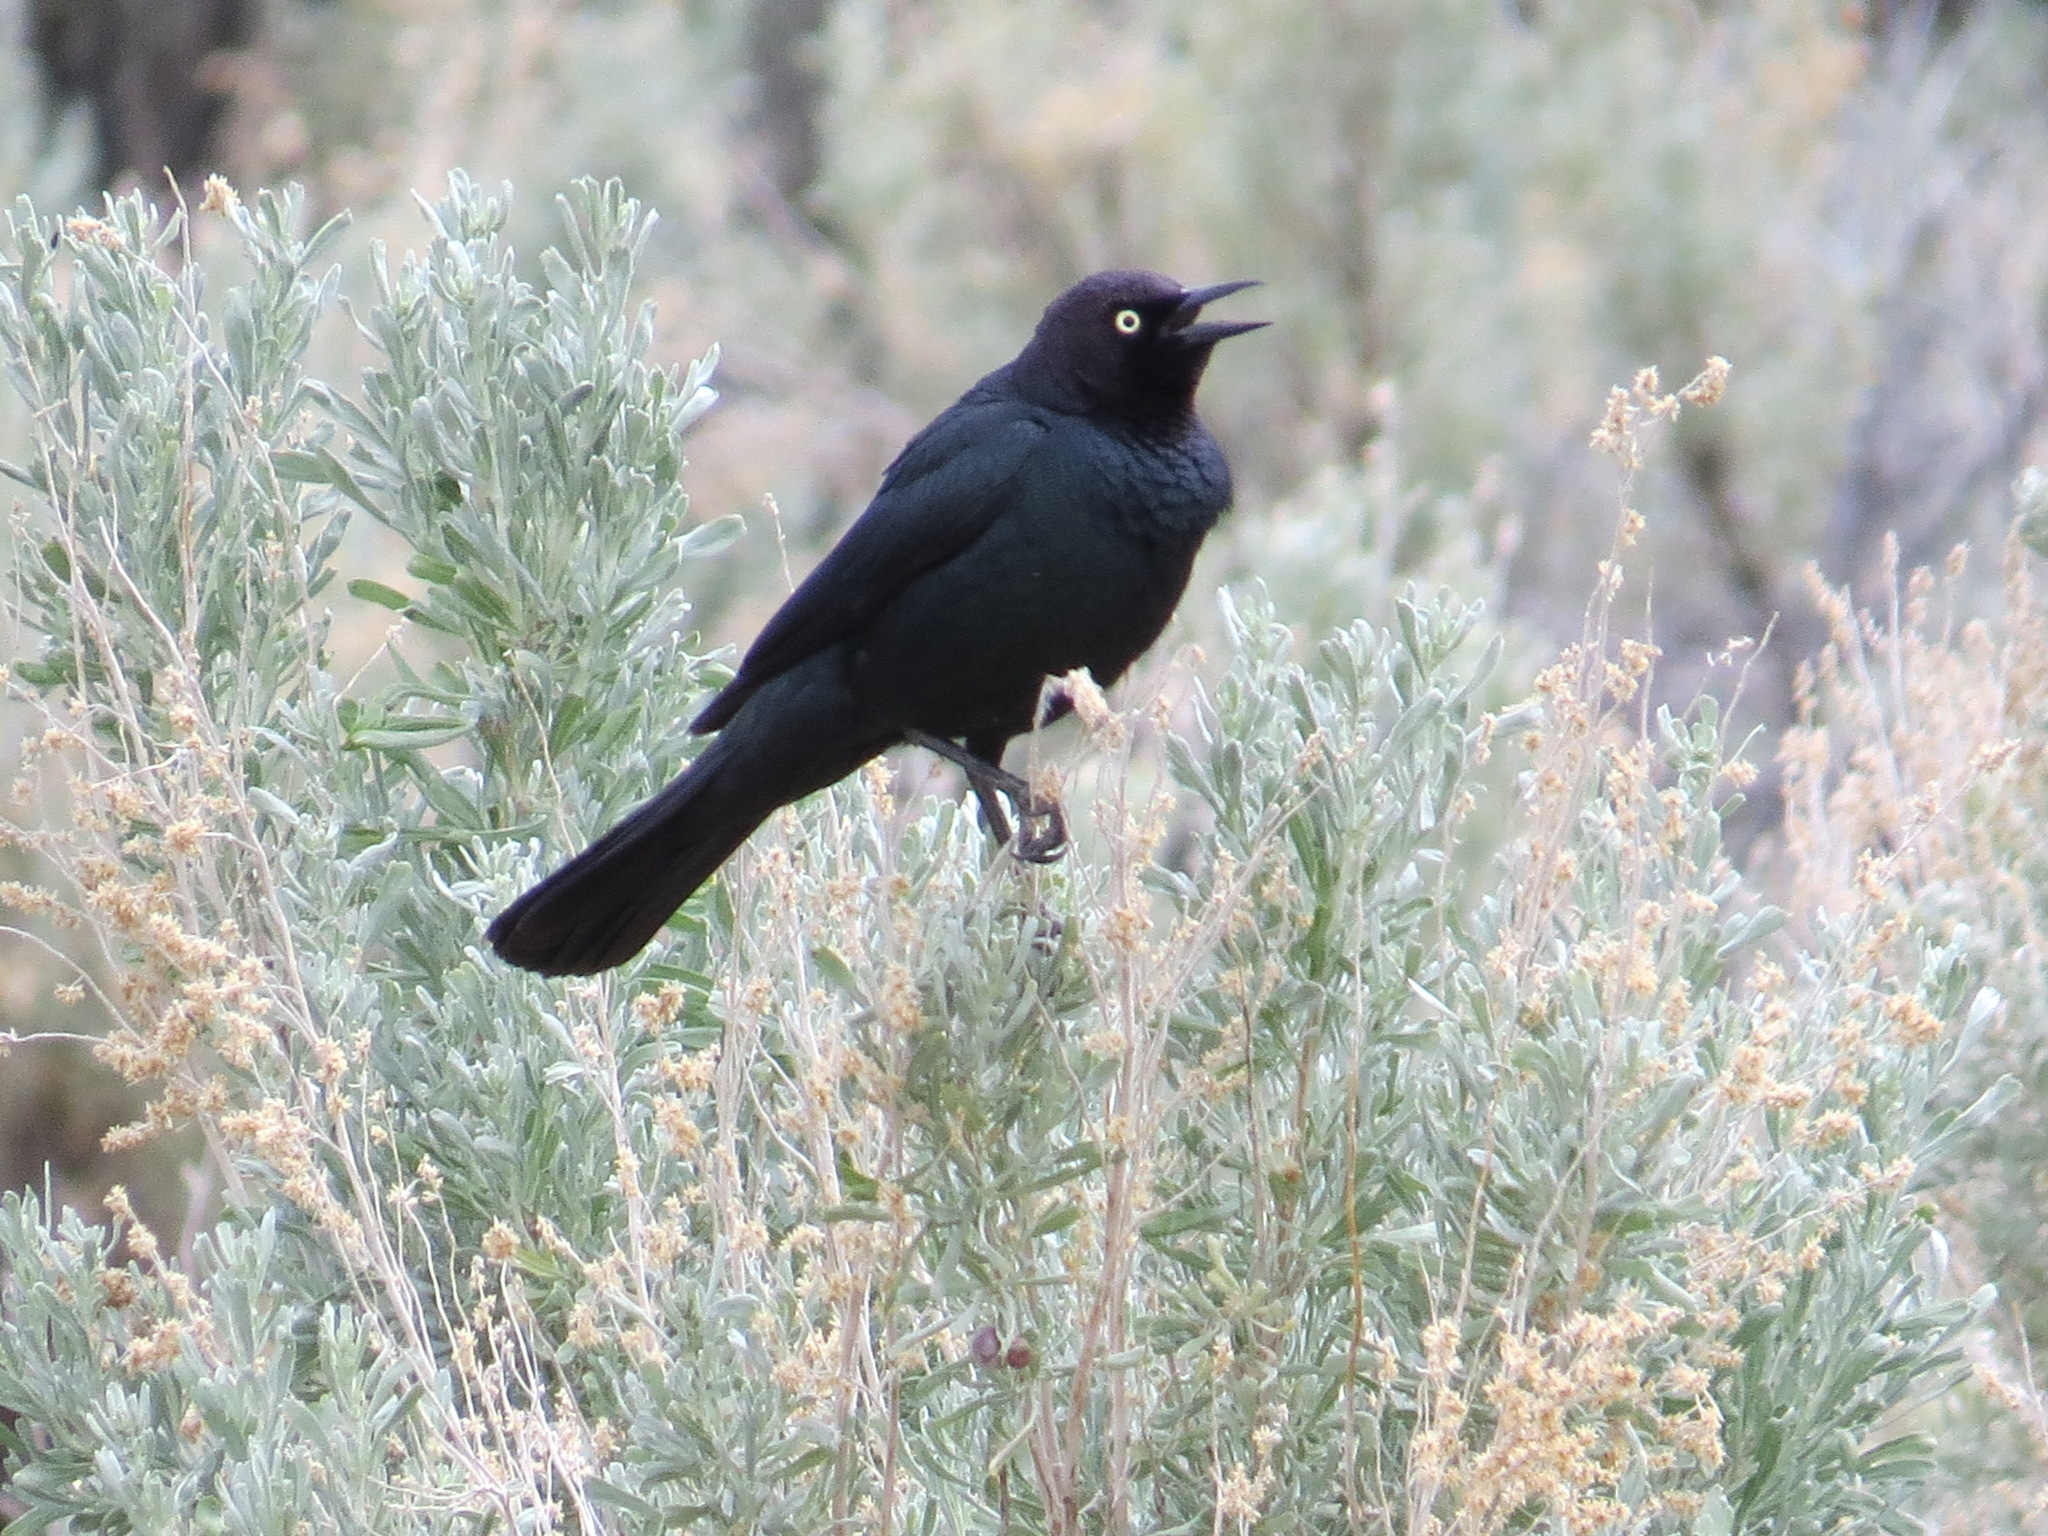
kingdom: Animalia
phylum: Chordata
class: Aves
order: Passeriformes
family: Icteridae
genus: Euphagus
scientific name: Euphagus cyanocephalus
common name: Brewer's blackbird
